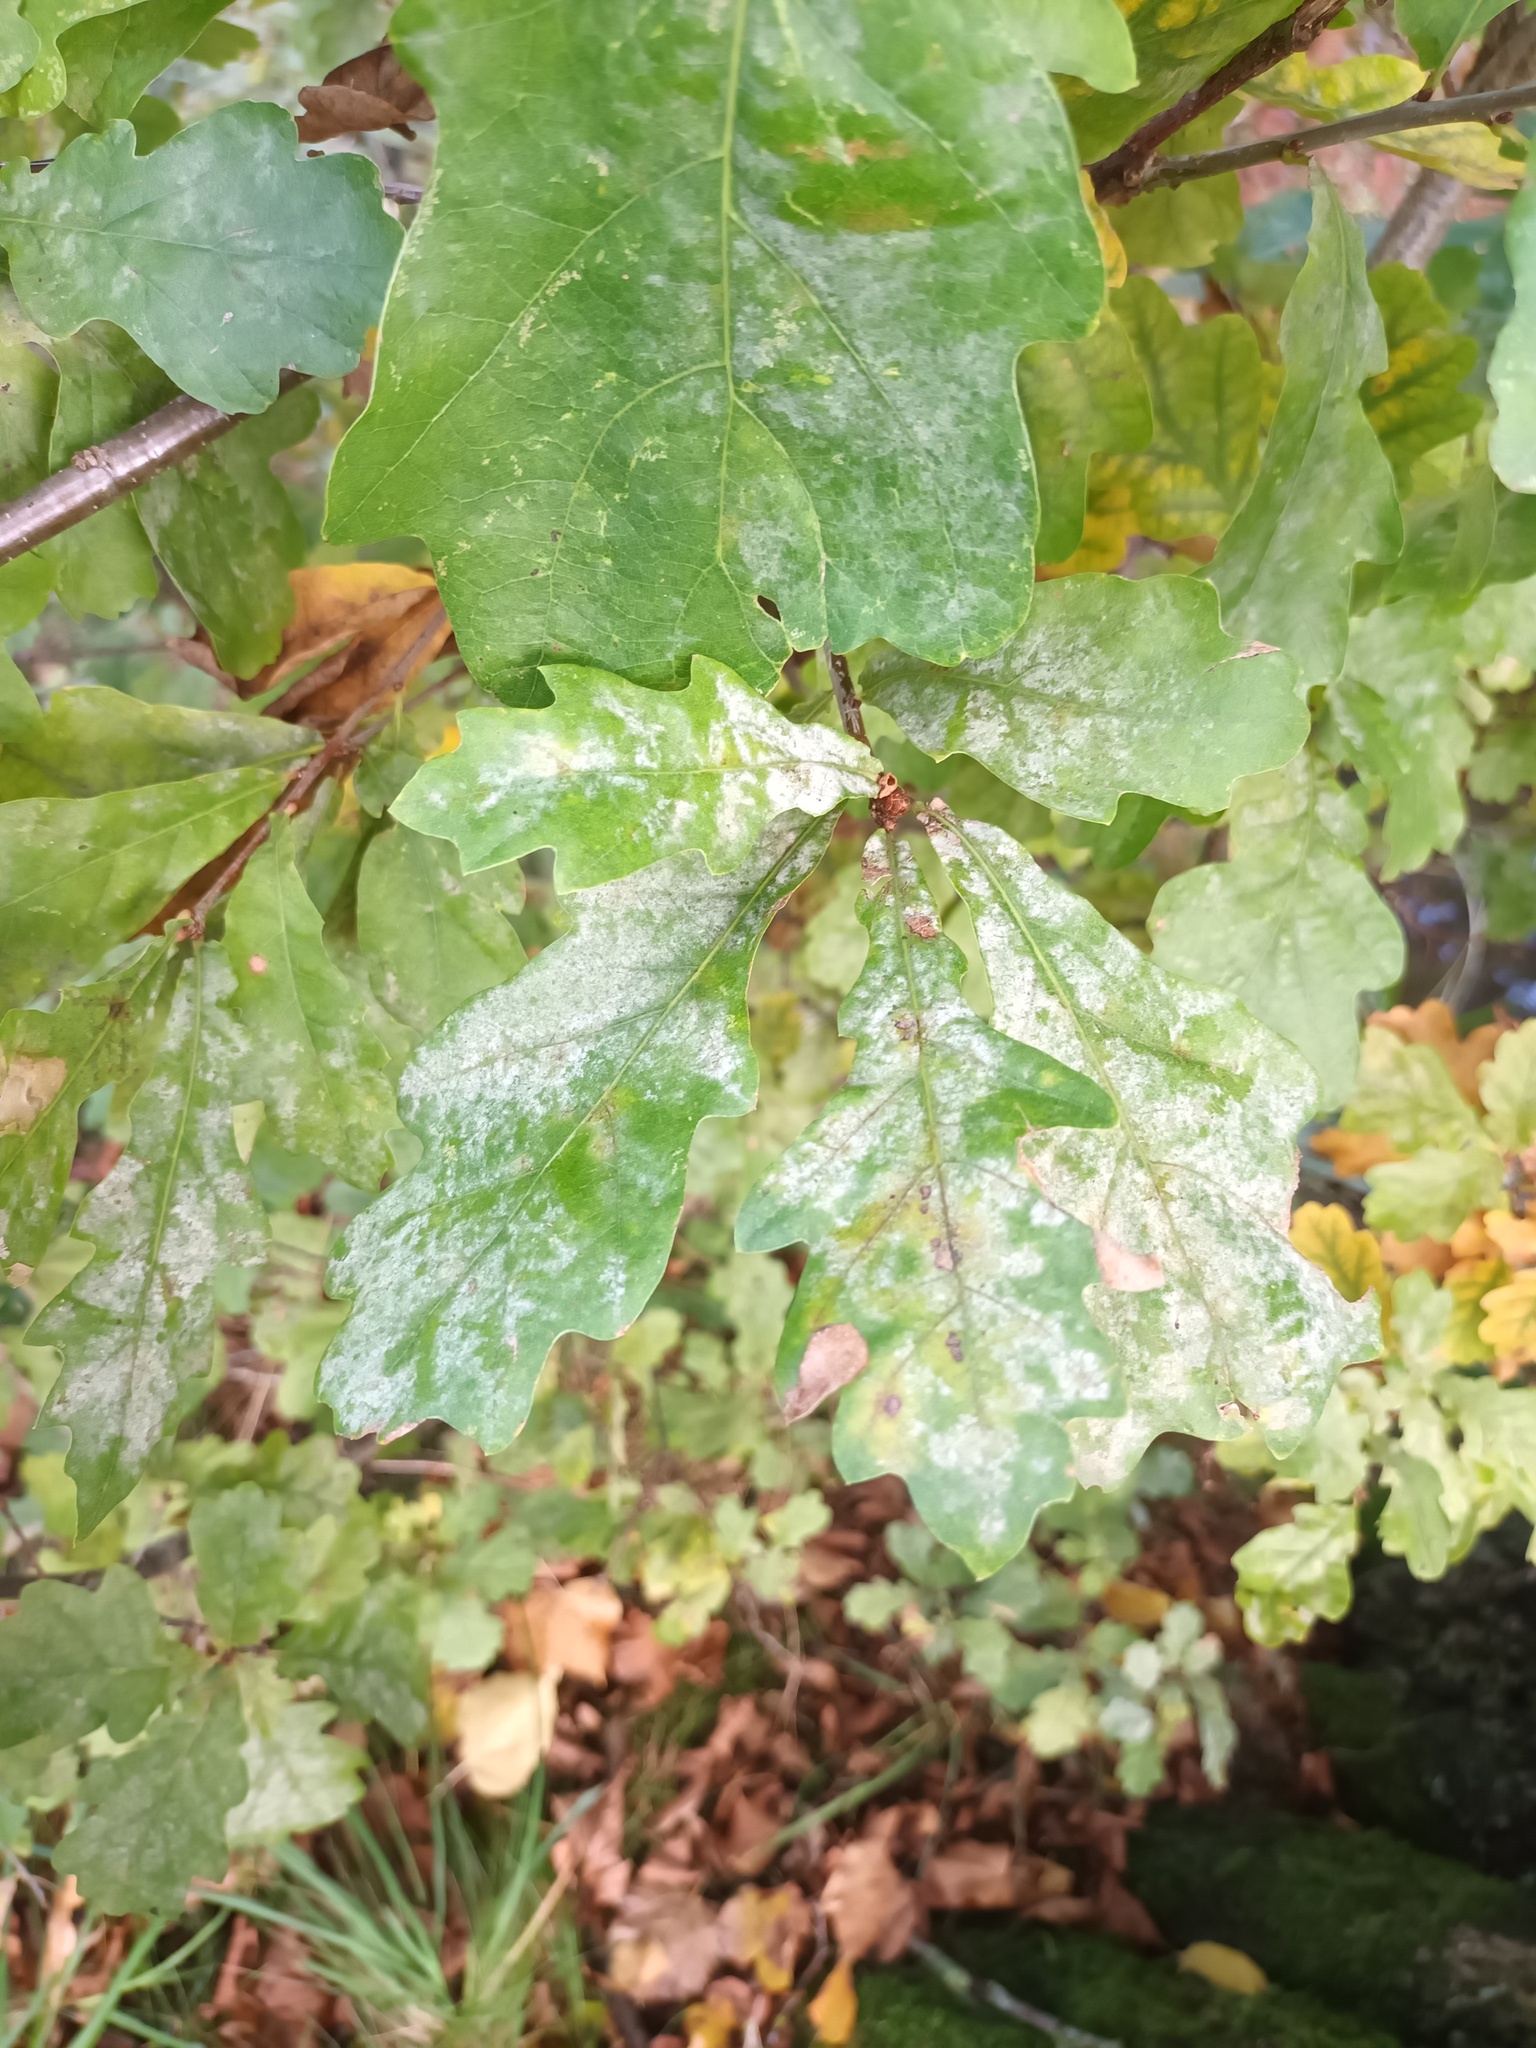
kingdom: Fungi
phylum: Ascomycota
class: Leotiomycetes
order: Helotiales
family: Erysiphaceae
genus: Erysiphe
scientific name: Erysiphe
